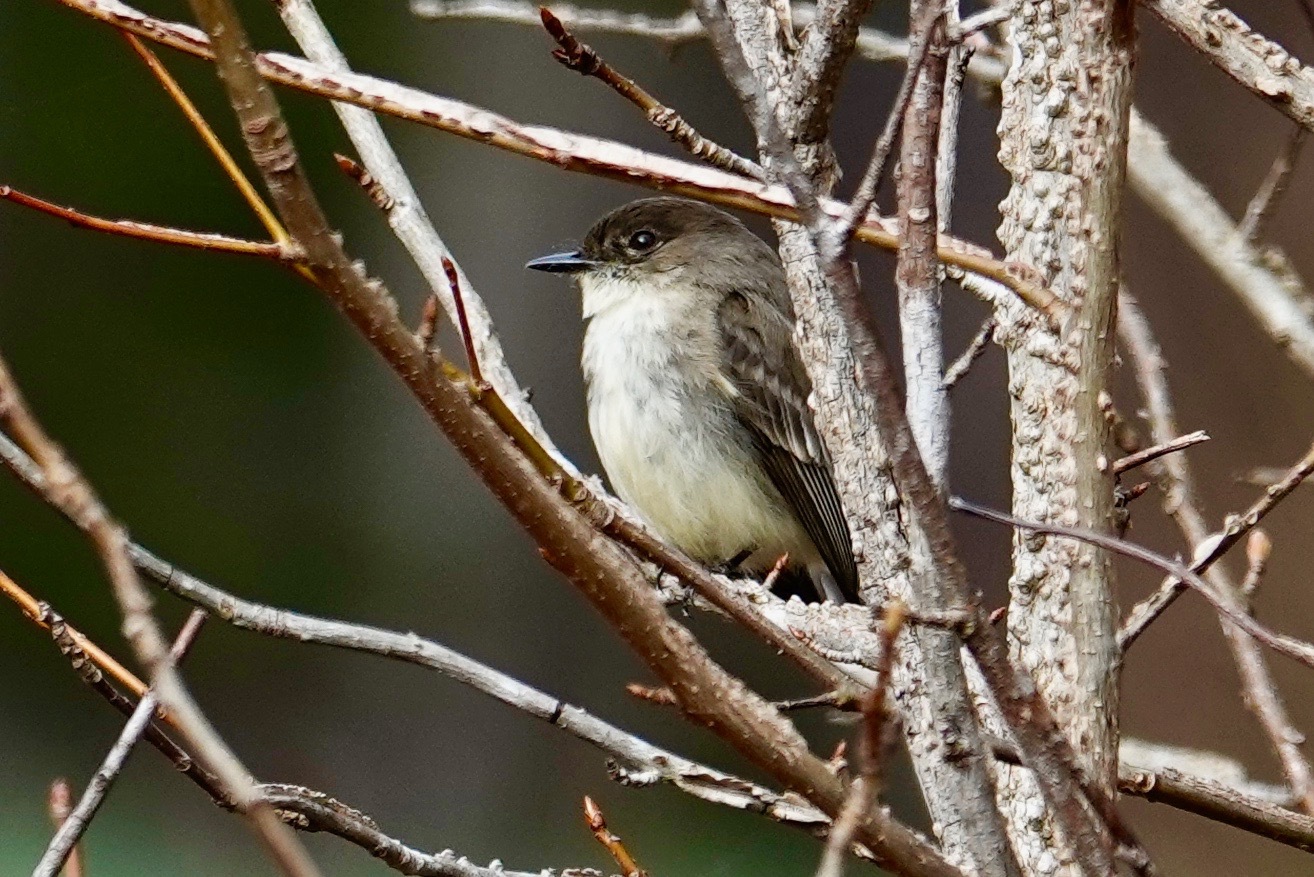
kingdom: Animalia
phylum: Chordata
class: Aves
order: Passeriformes
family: Tyrannidae
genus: Sayornis
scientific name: Sayornis phoebe
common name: Eastern phoebe
